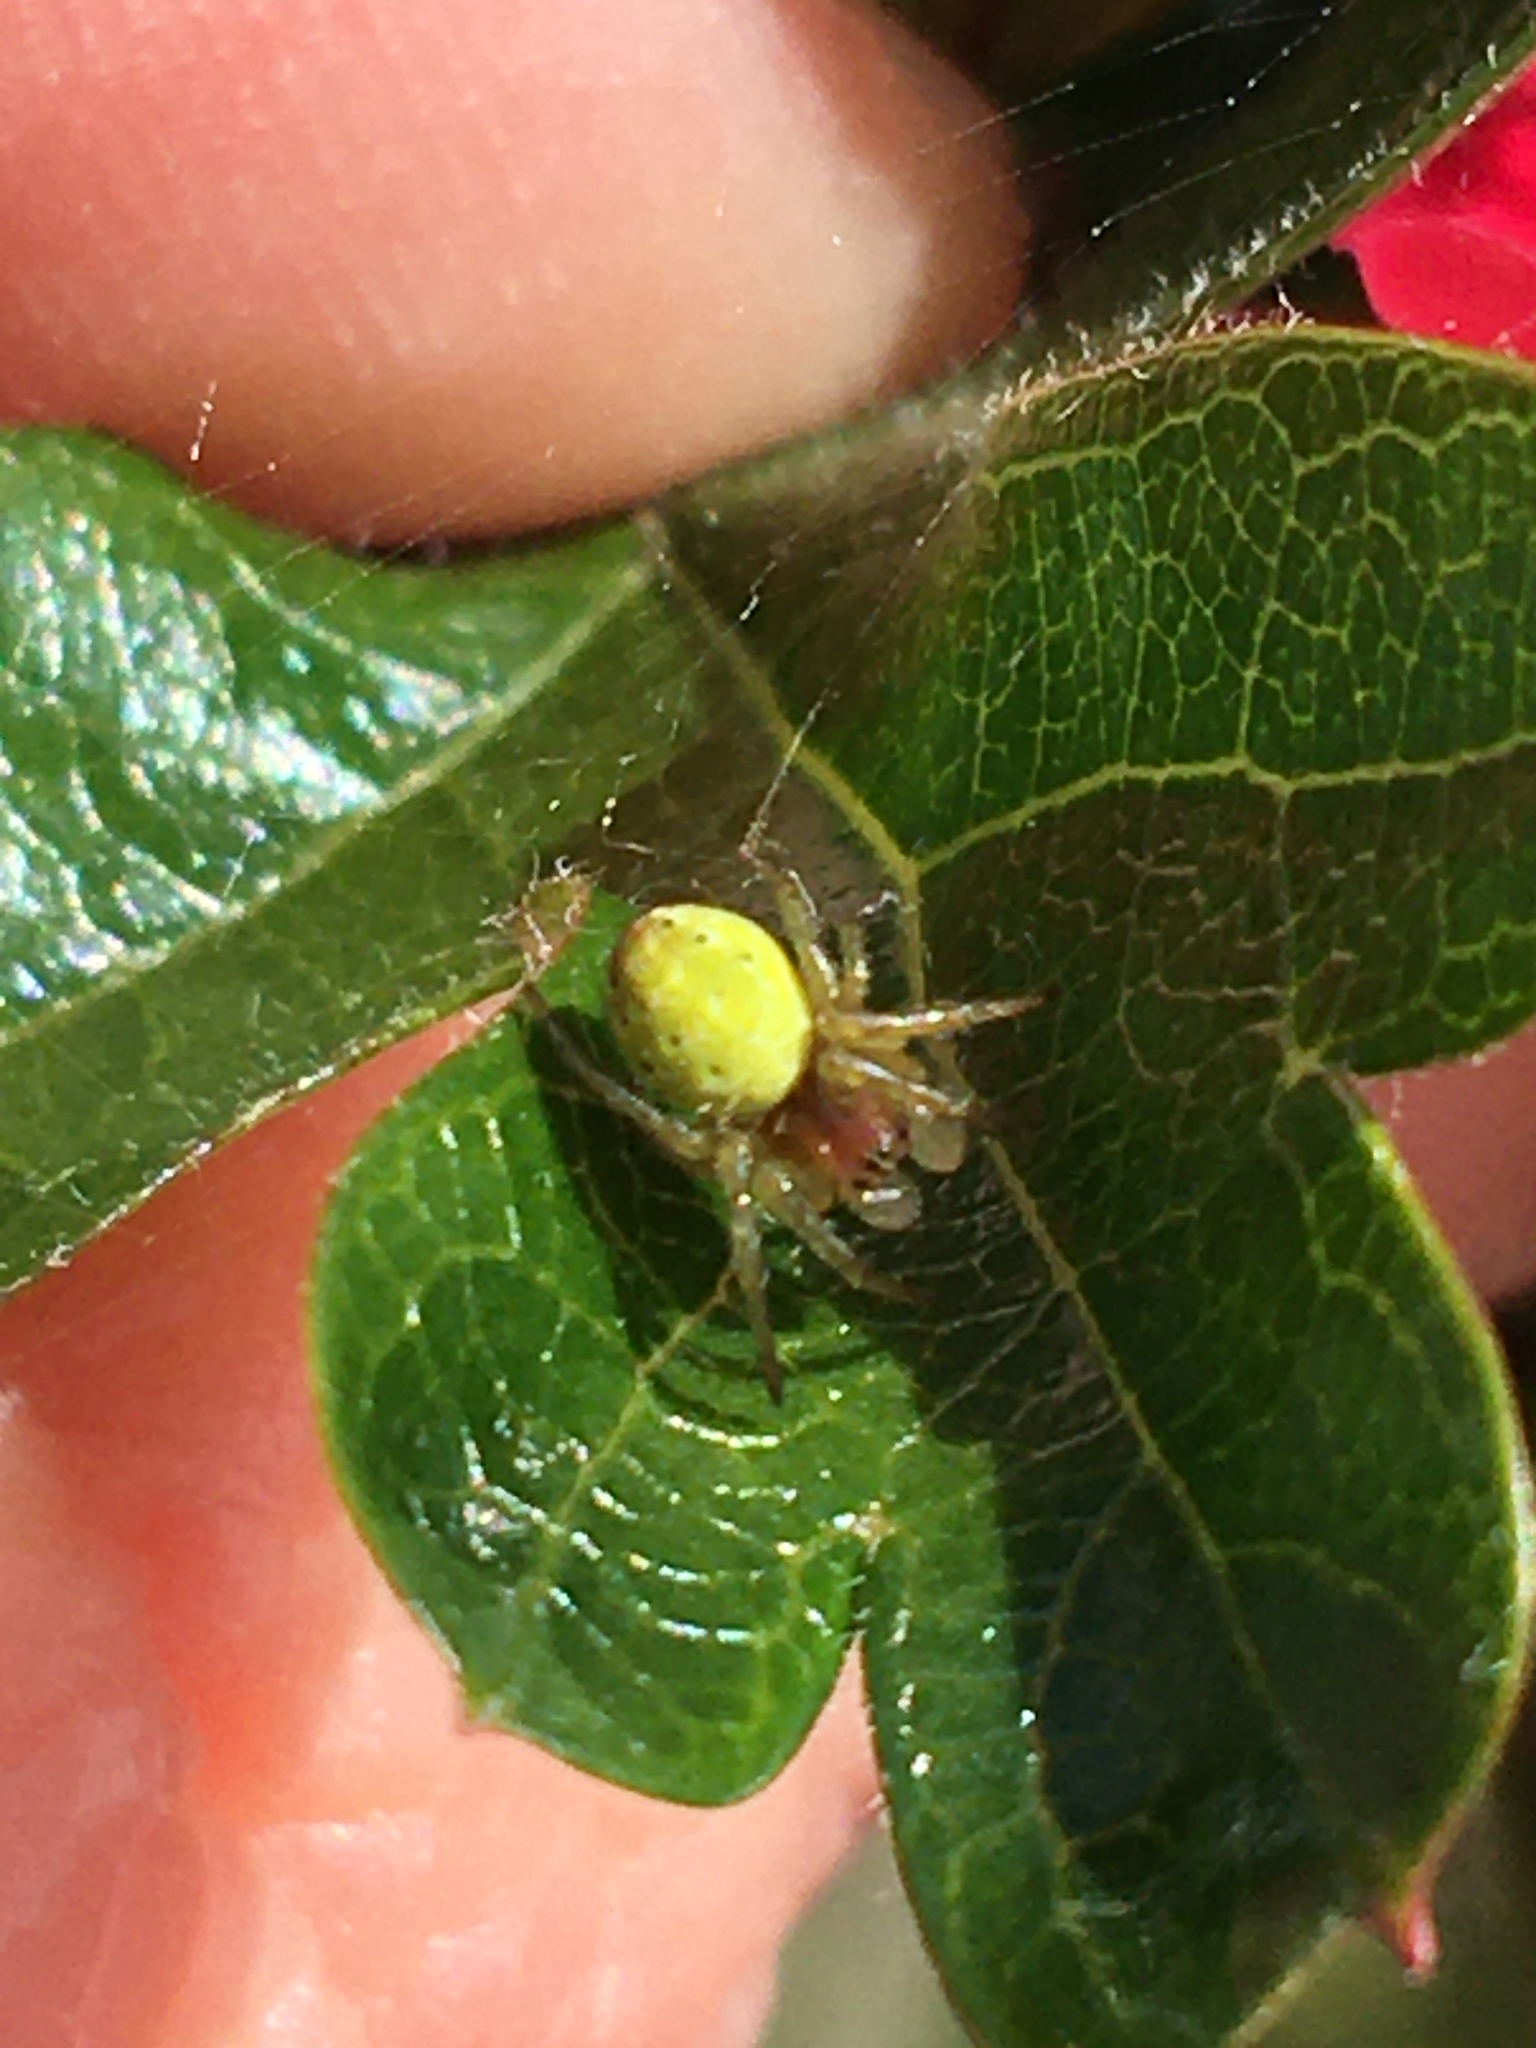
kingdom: Animalia
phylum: Arthropoda
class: Arachnida
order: Araneae
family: Araneidae
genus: Araniella
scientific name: Araniella
